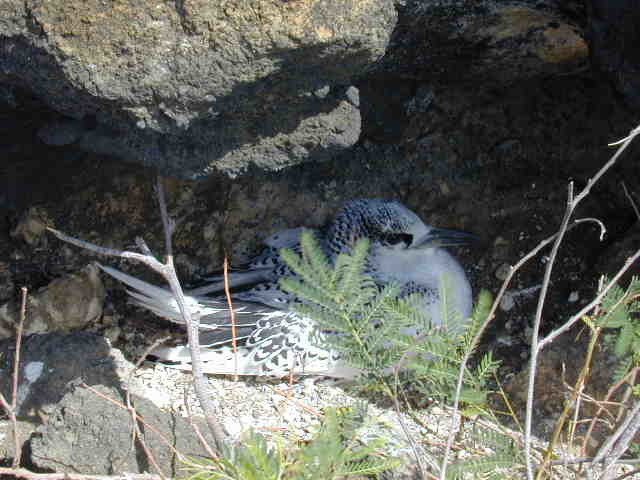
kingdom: Animalia
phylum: Chordata
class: Aves
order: Phaethontiformes
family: Phaethontidae
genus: Phaethon
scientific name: Phaethon rubricauda
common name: Red-tailed tropicbird
